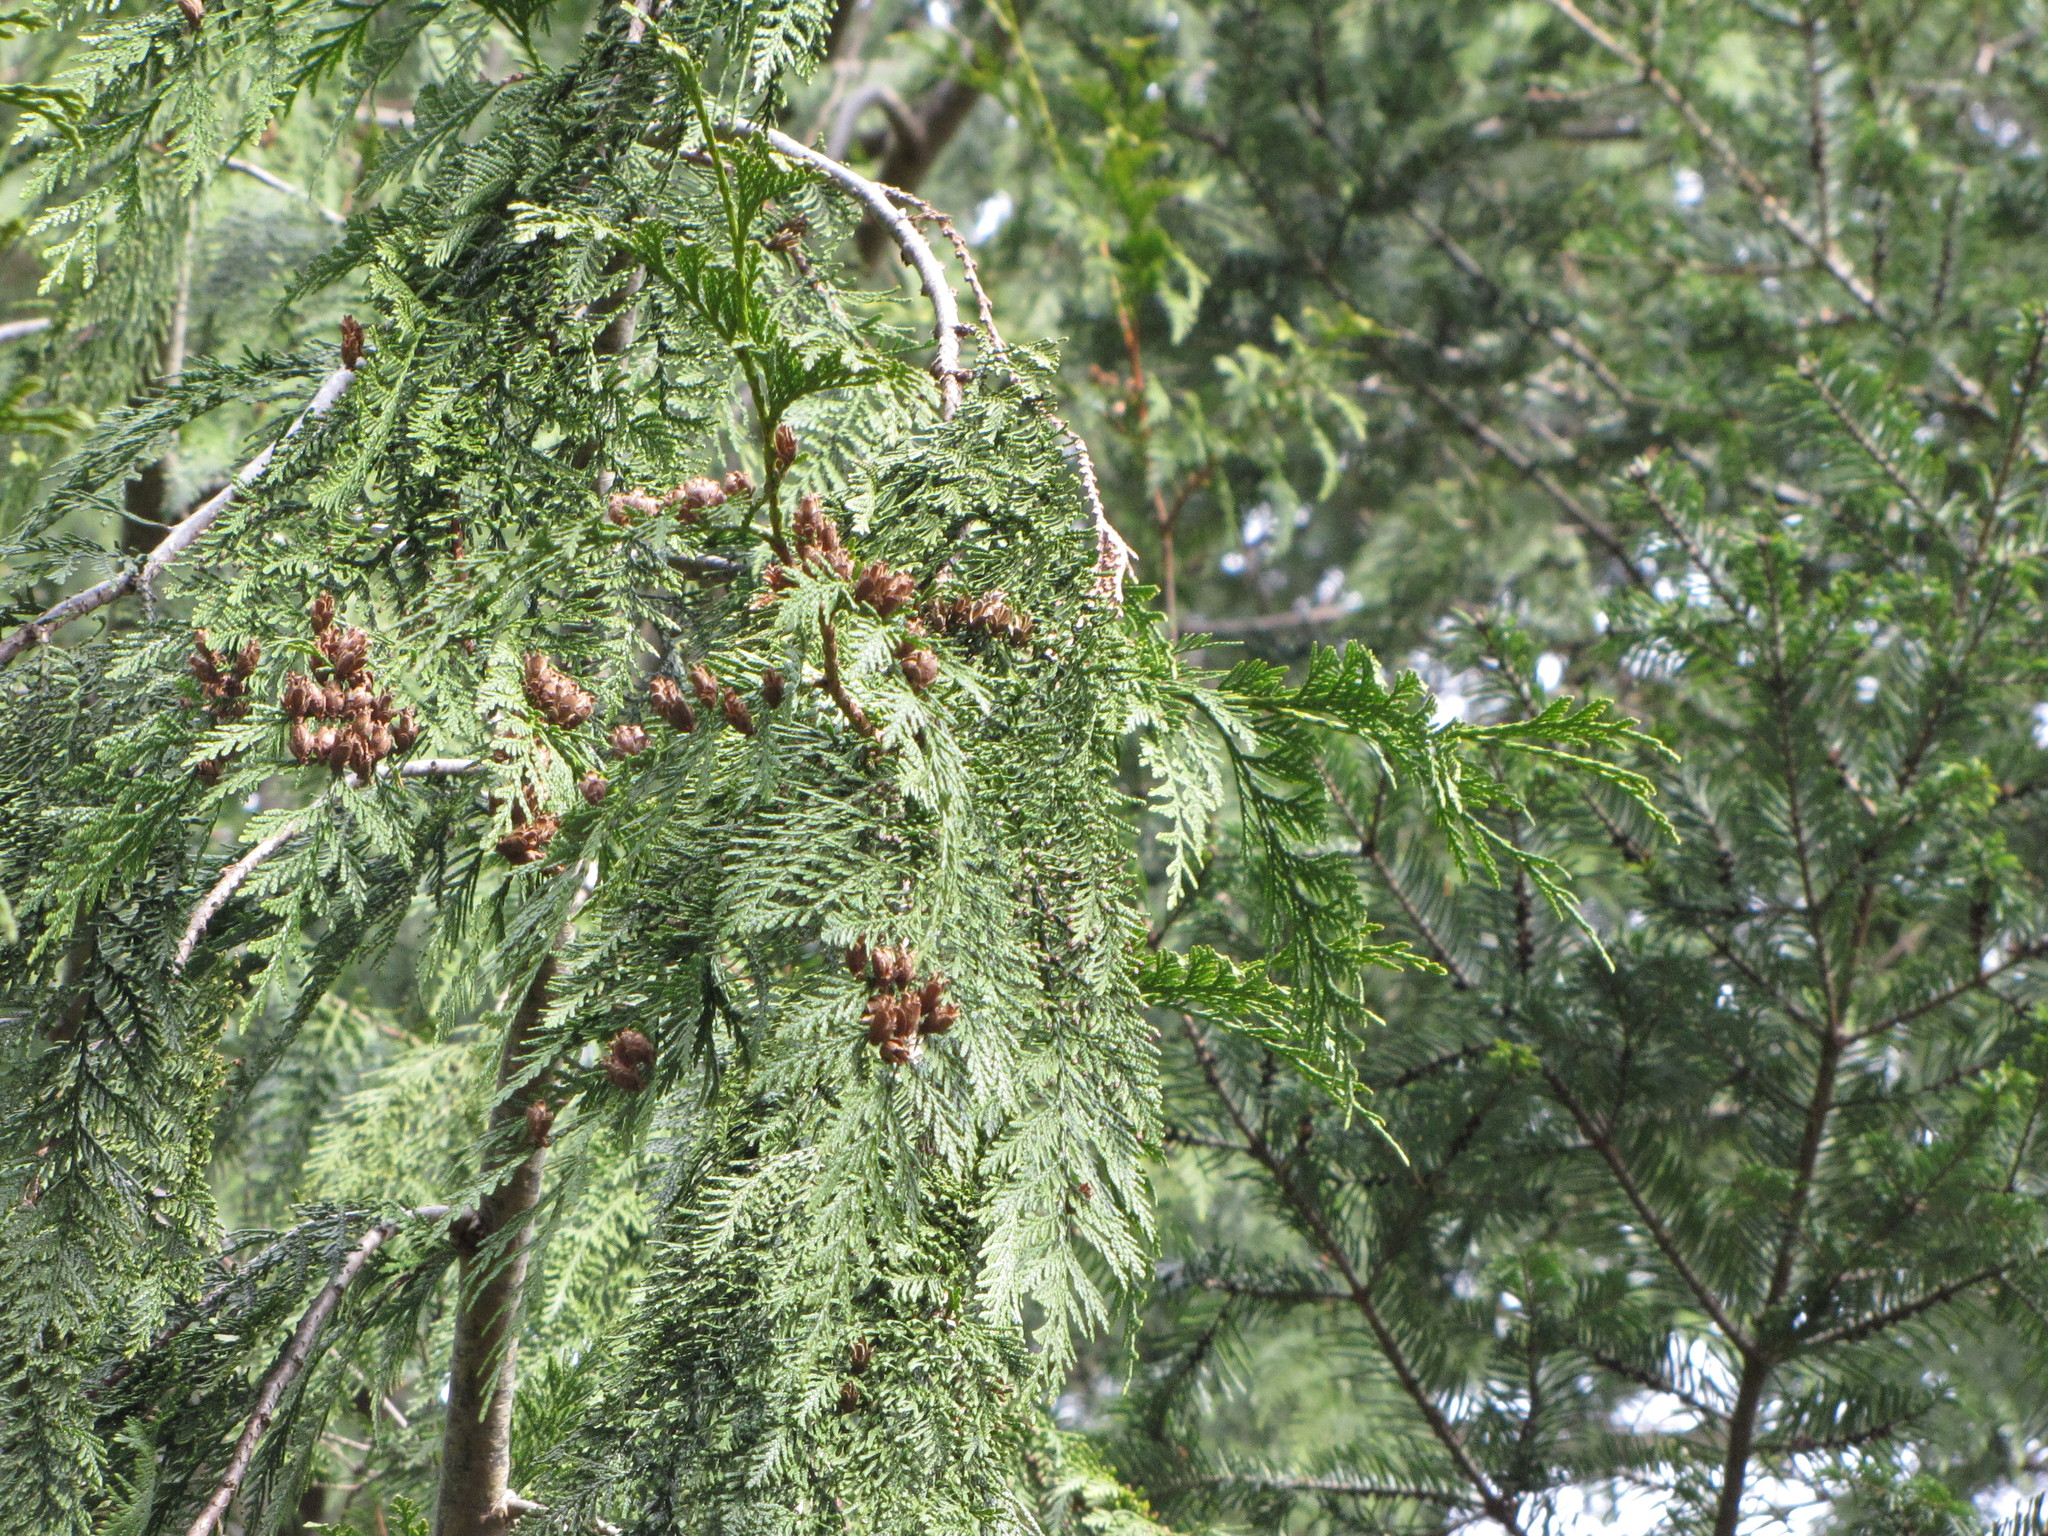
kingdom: Plantae
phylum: Tracheophyta
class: Pinopsida
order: Pinales
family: Cupressaceae
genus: Thuja
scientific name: Thuja plicata
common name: Western red-cedar
